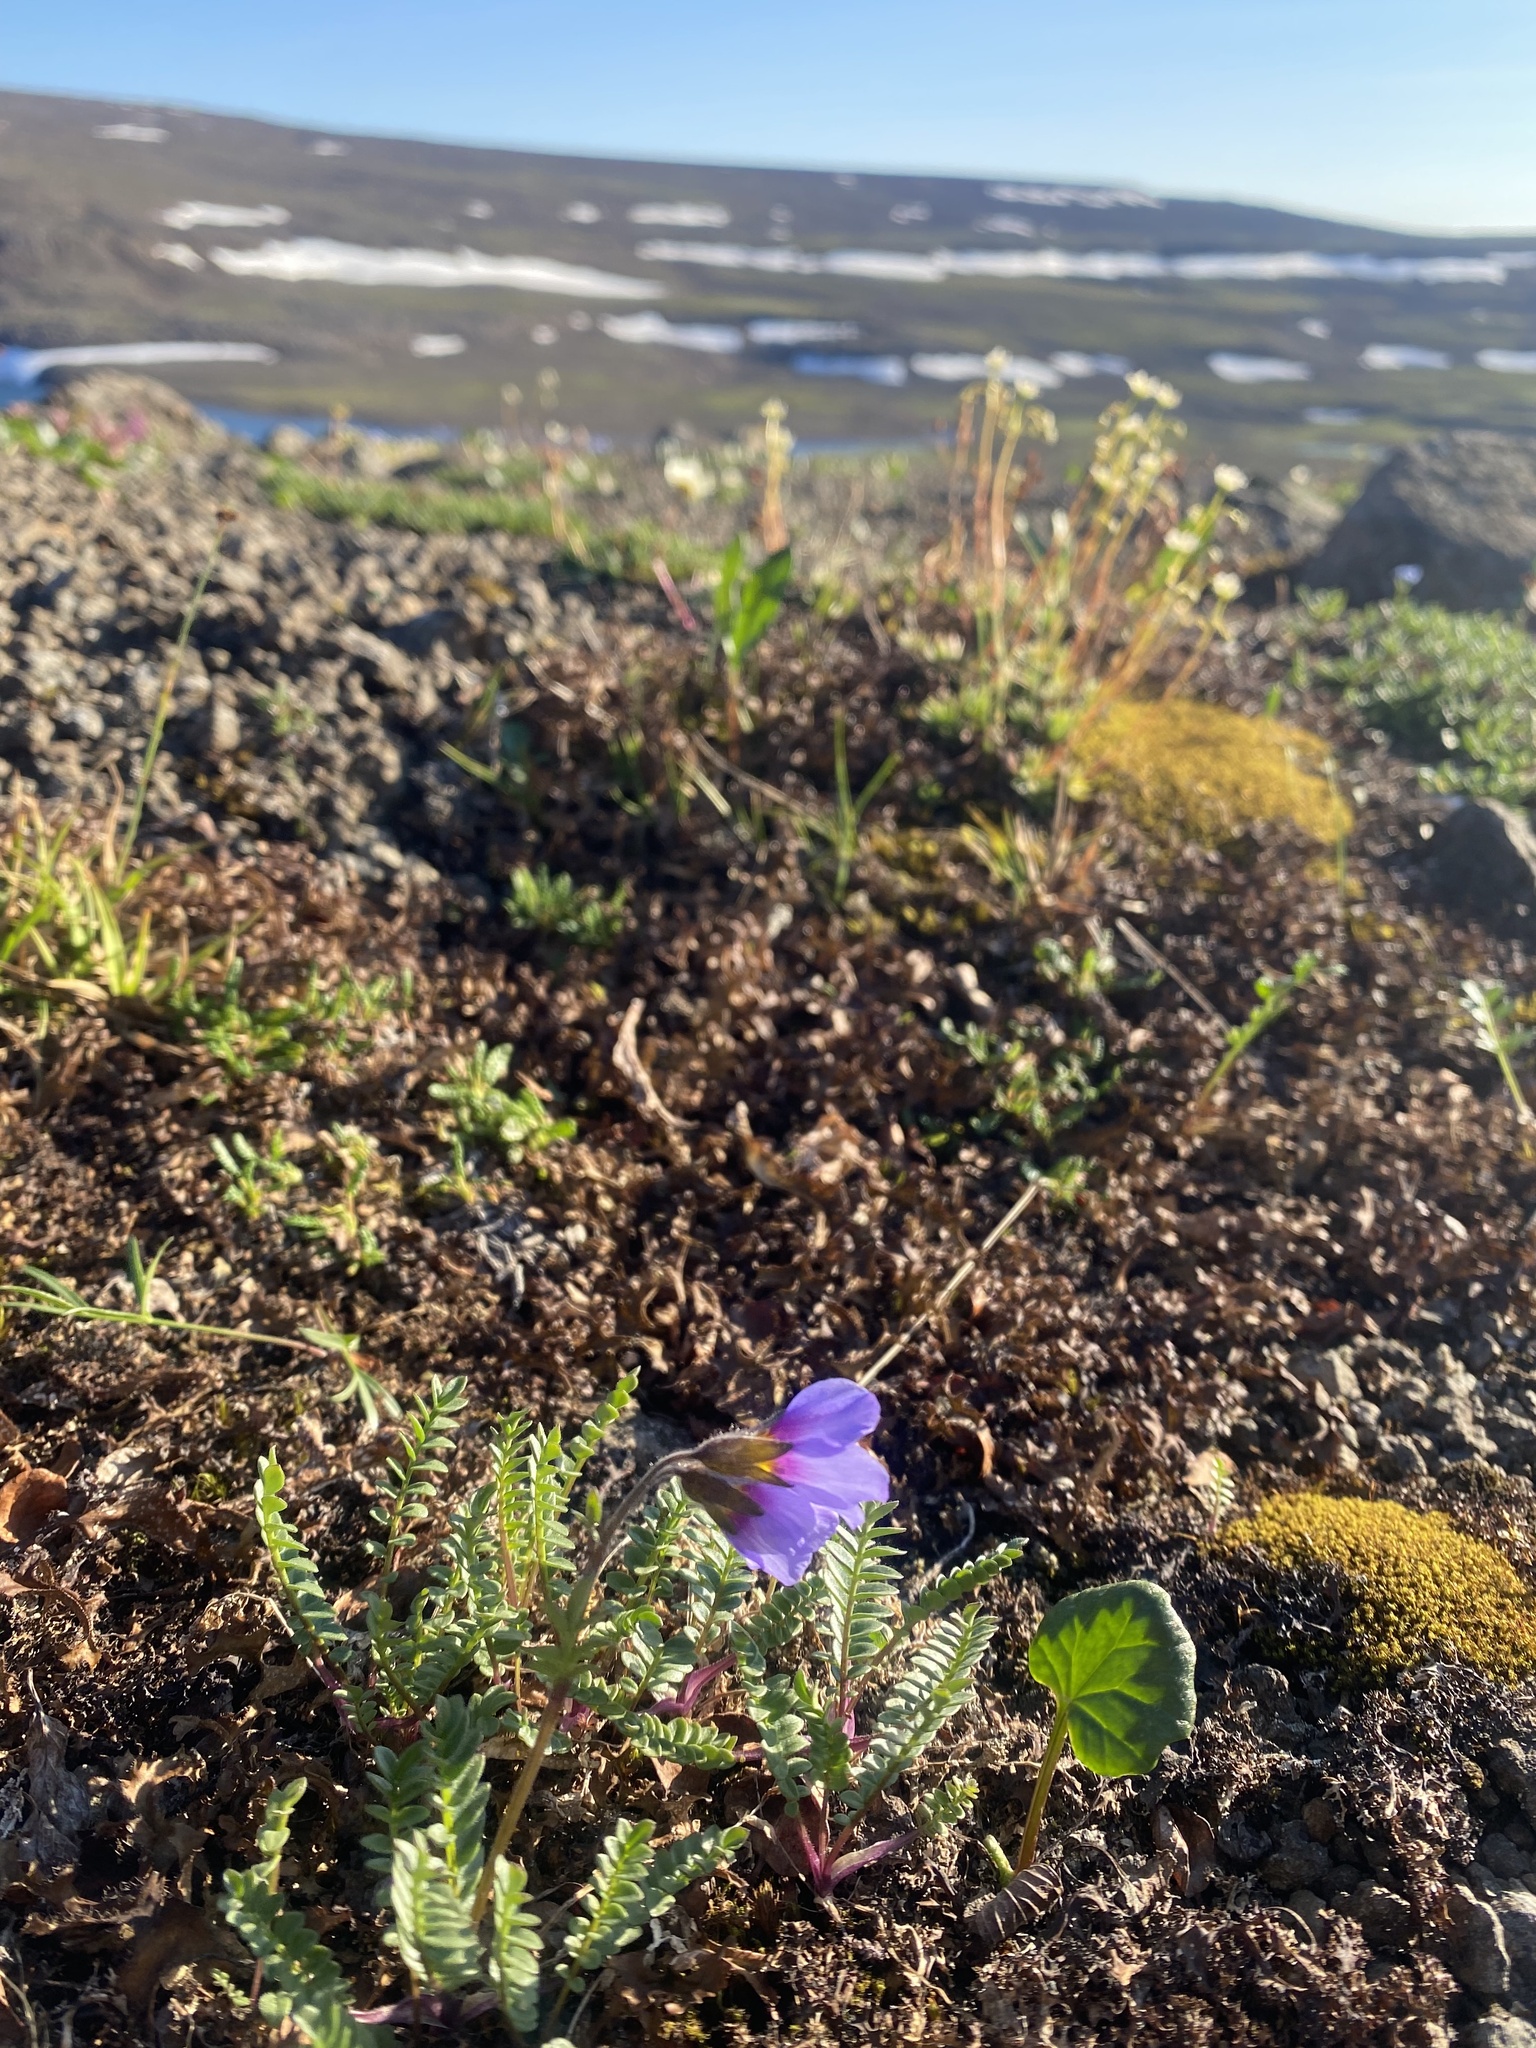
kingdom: Plantae
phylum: Tracheophyta
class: Magnoliopsida
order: Ericales
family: Polemoniaceae
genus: Polemonium
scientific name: Polemonium boreale
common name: Boreal jacob's-ladder
